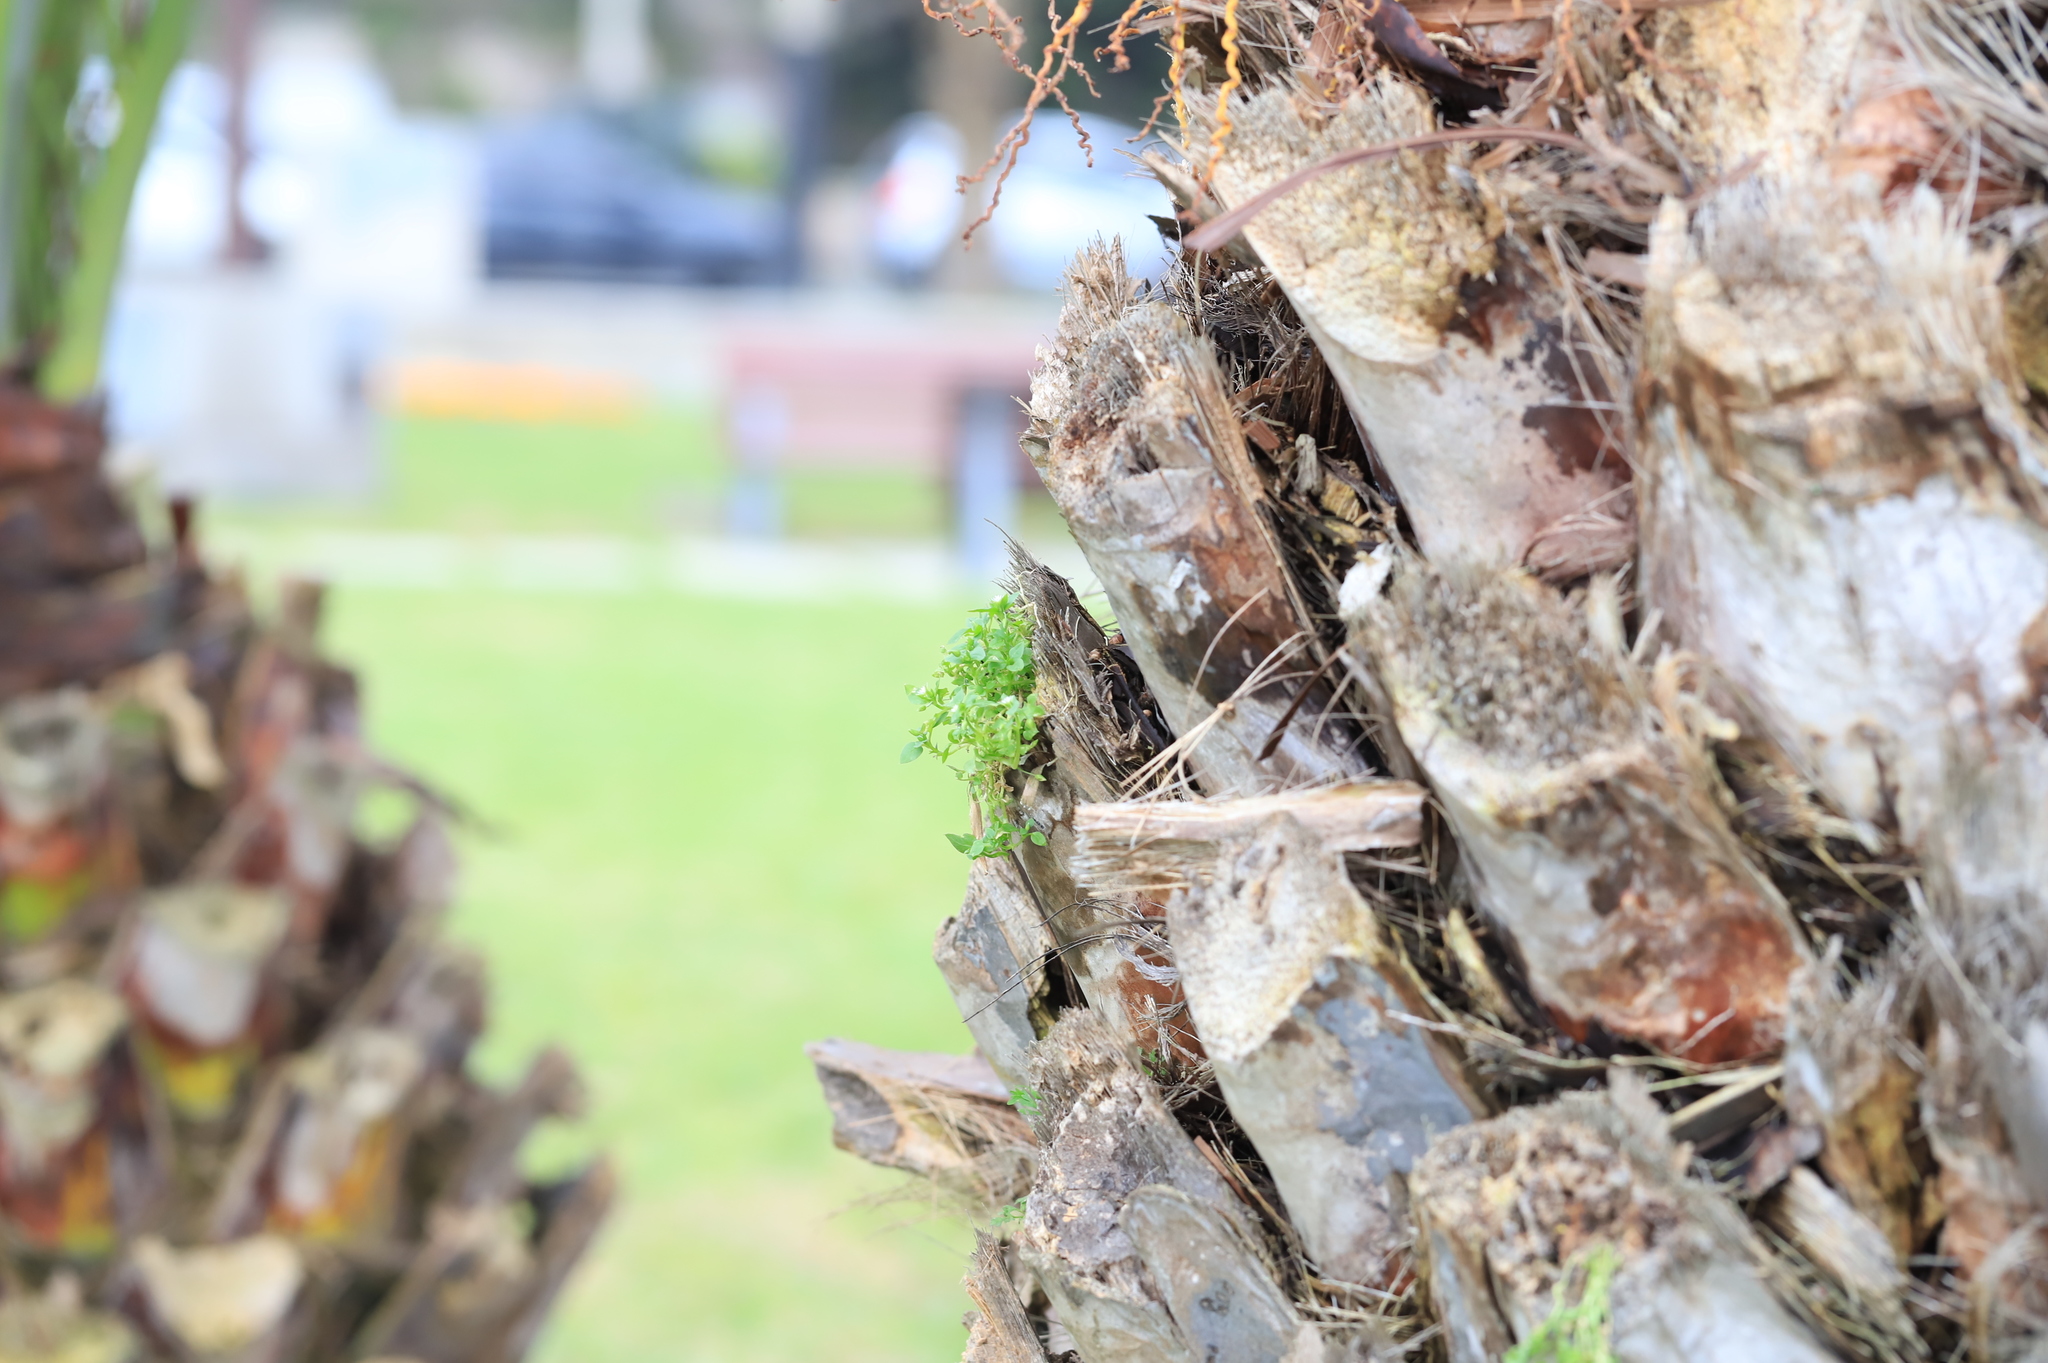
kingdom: Plantae
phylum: Tracheophyta
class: Magnoliopsida
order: Caryophyllales
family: Caryophyllaceae
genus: Stellaria
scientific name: Stellaria media
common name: Common chickweed
